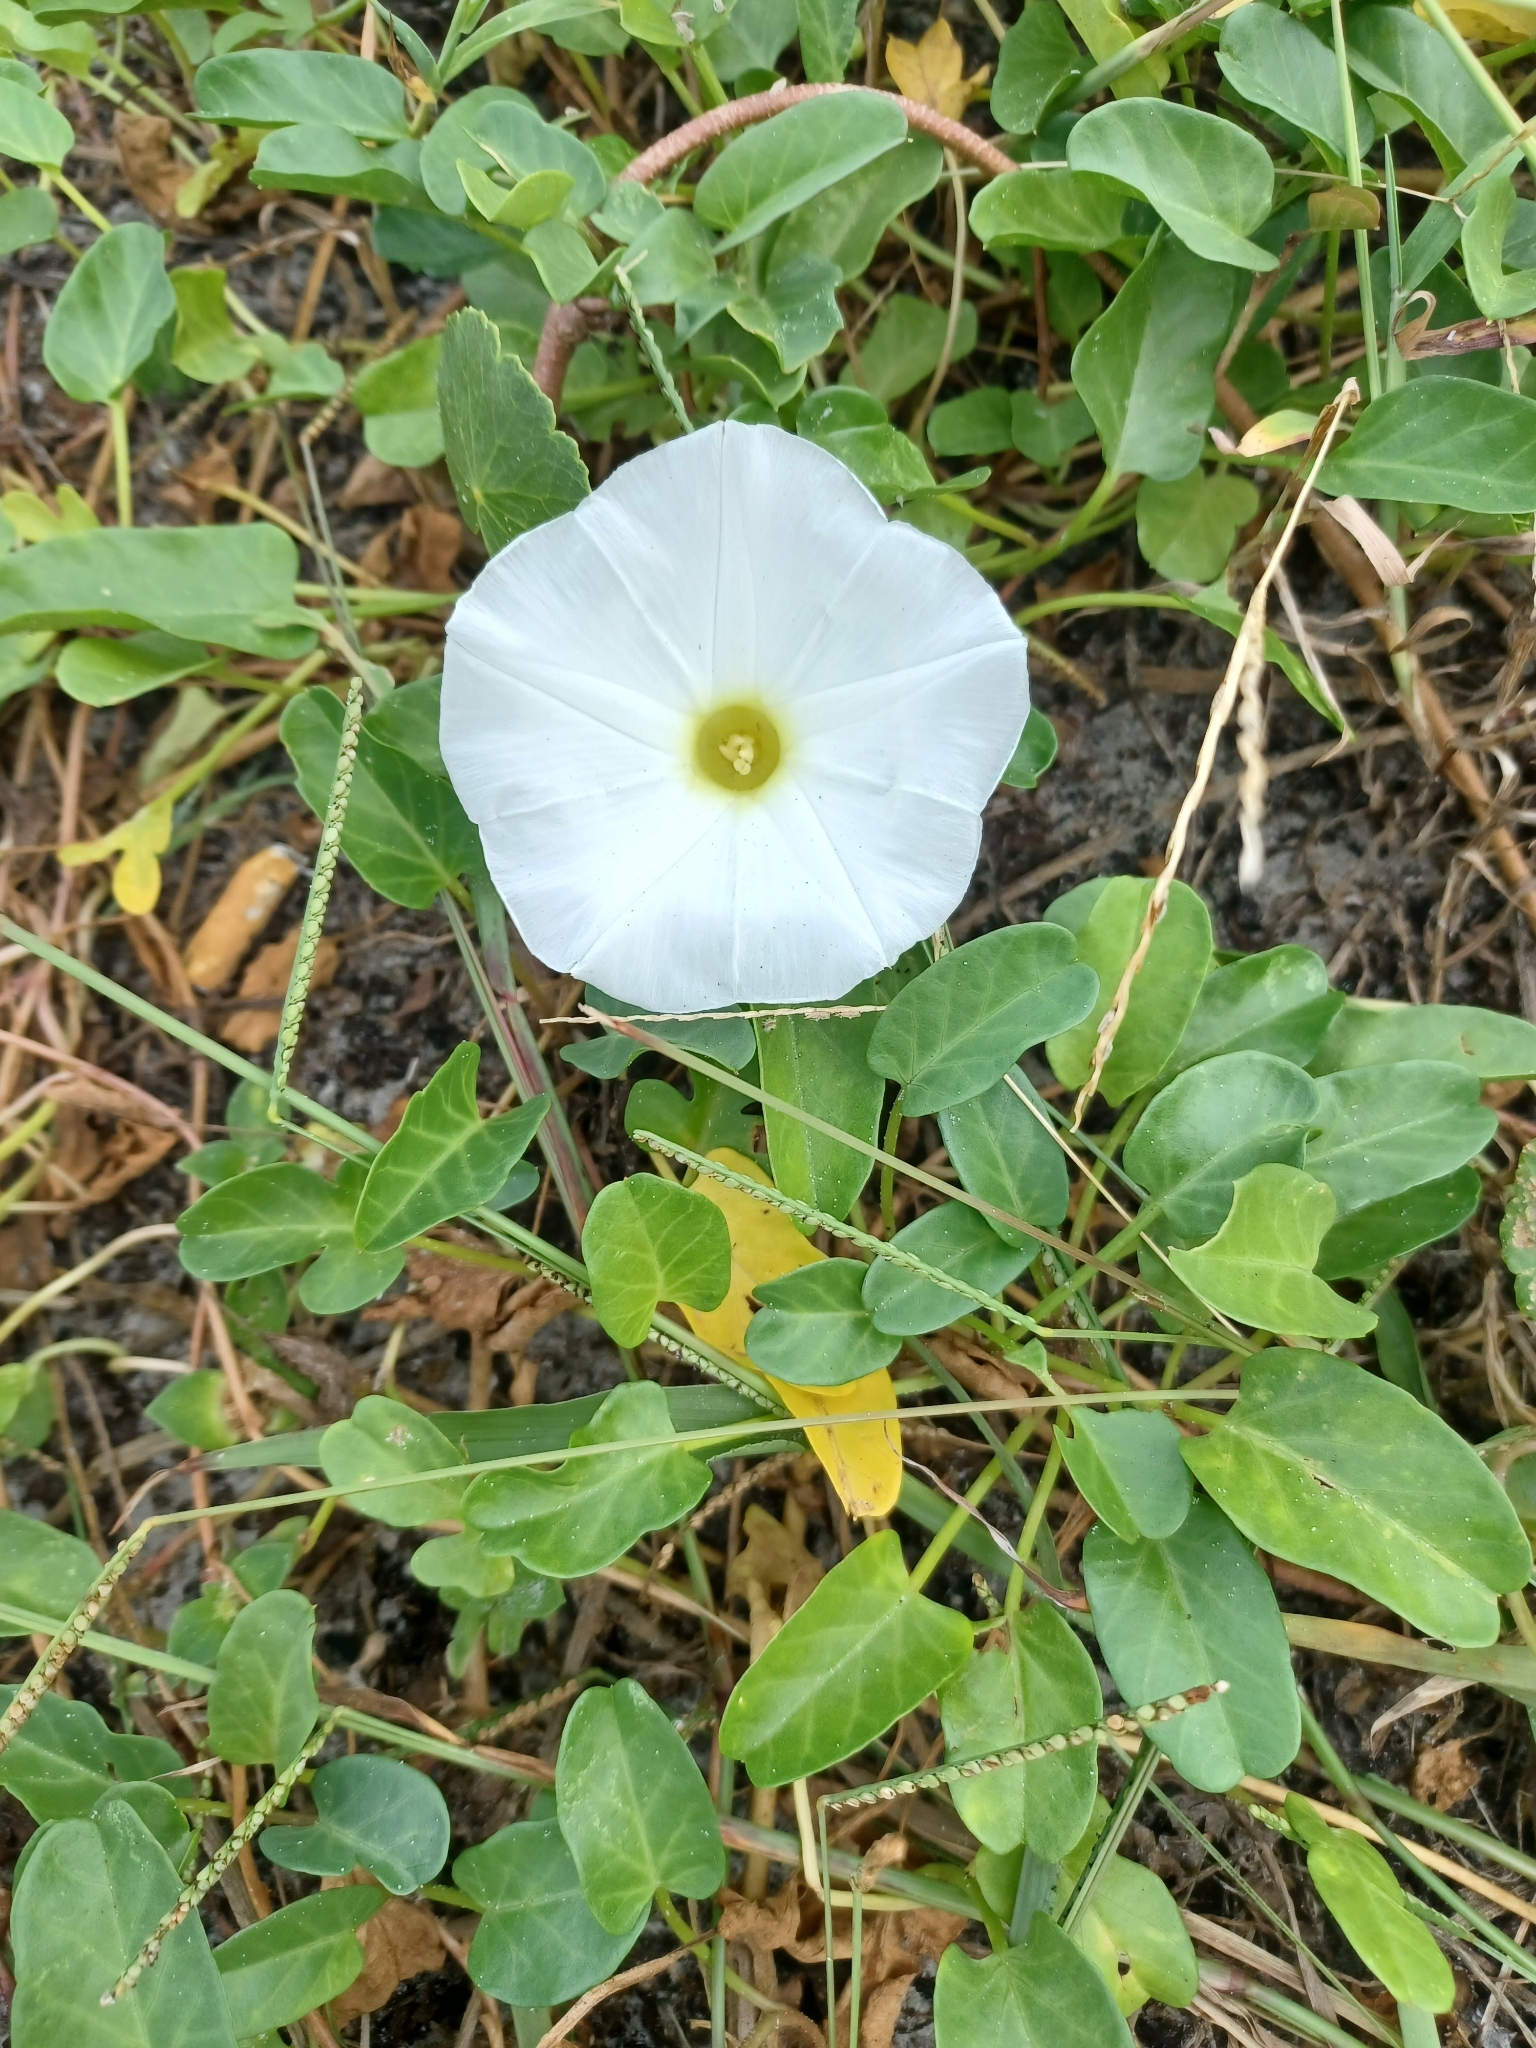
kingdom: Plantae
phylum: Tracheophyta
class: Magnoliopsida
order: Solanales
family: Convolvulaceae
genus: Ipomoea
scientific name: Ipomoea imperati
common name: Fiddle-leaf morning-glory
